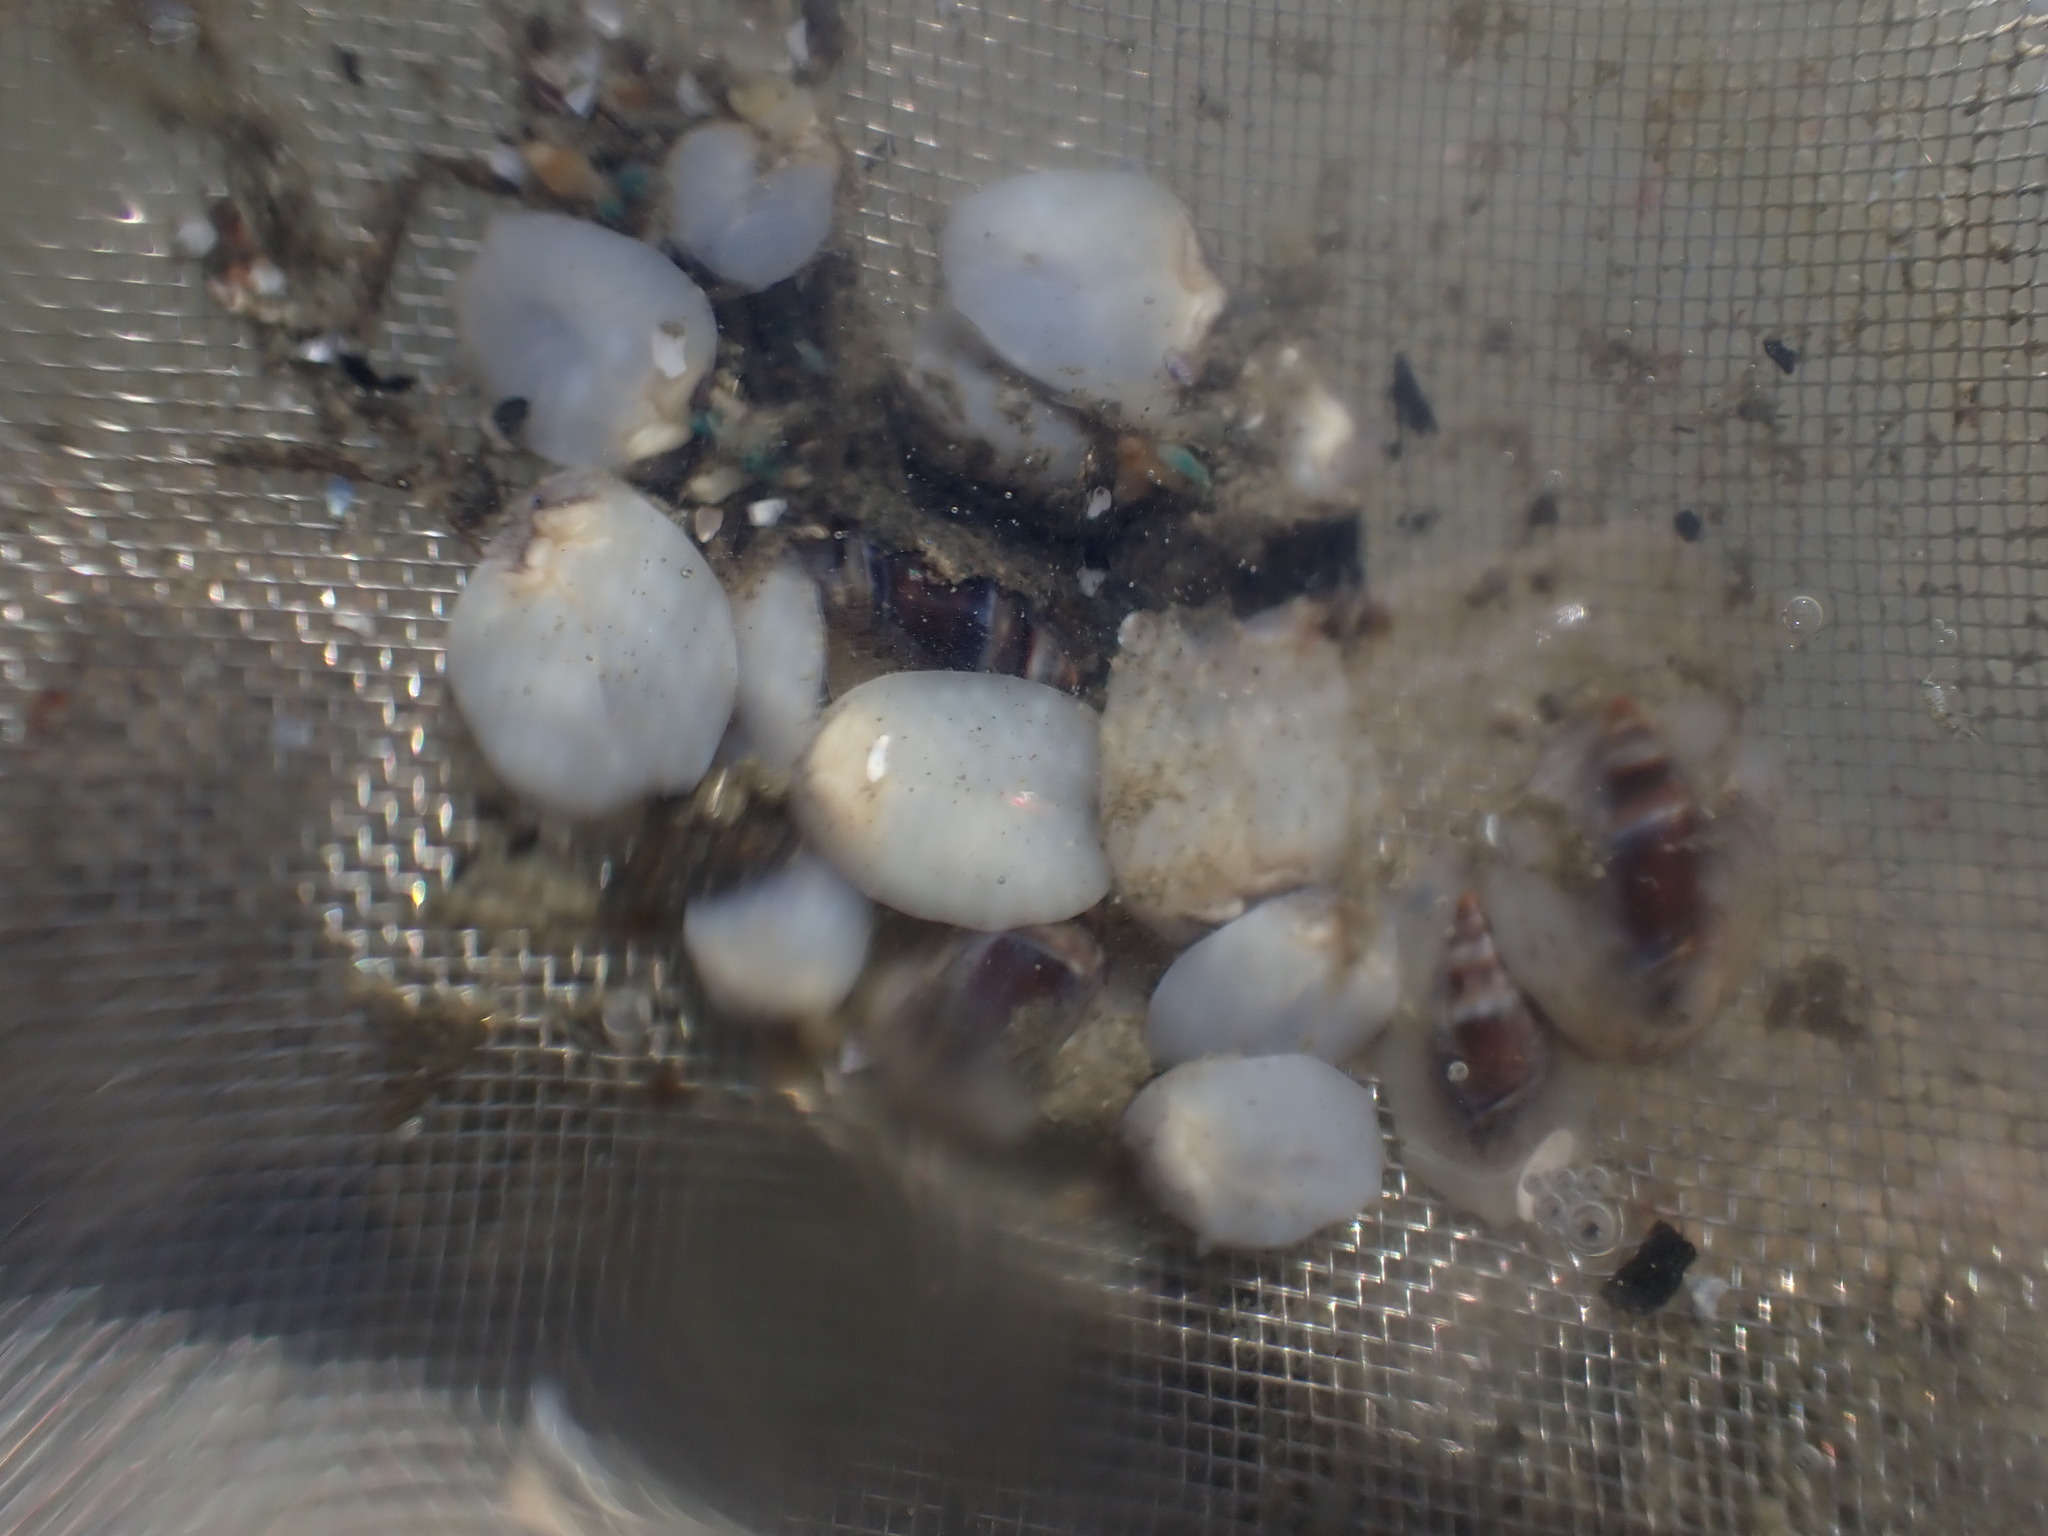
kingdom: Animalia
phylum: Mollusca
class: Gastropoda
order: Neogastropoda
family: Ancillariidae
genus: Amalda
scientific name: Amalda australis
